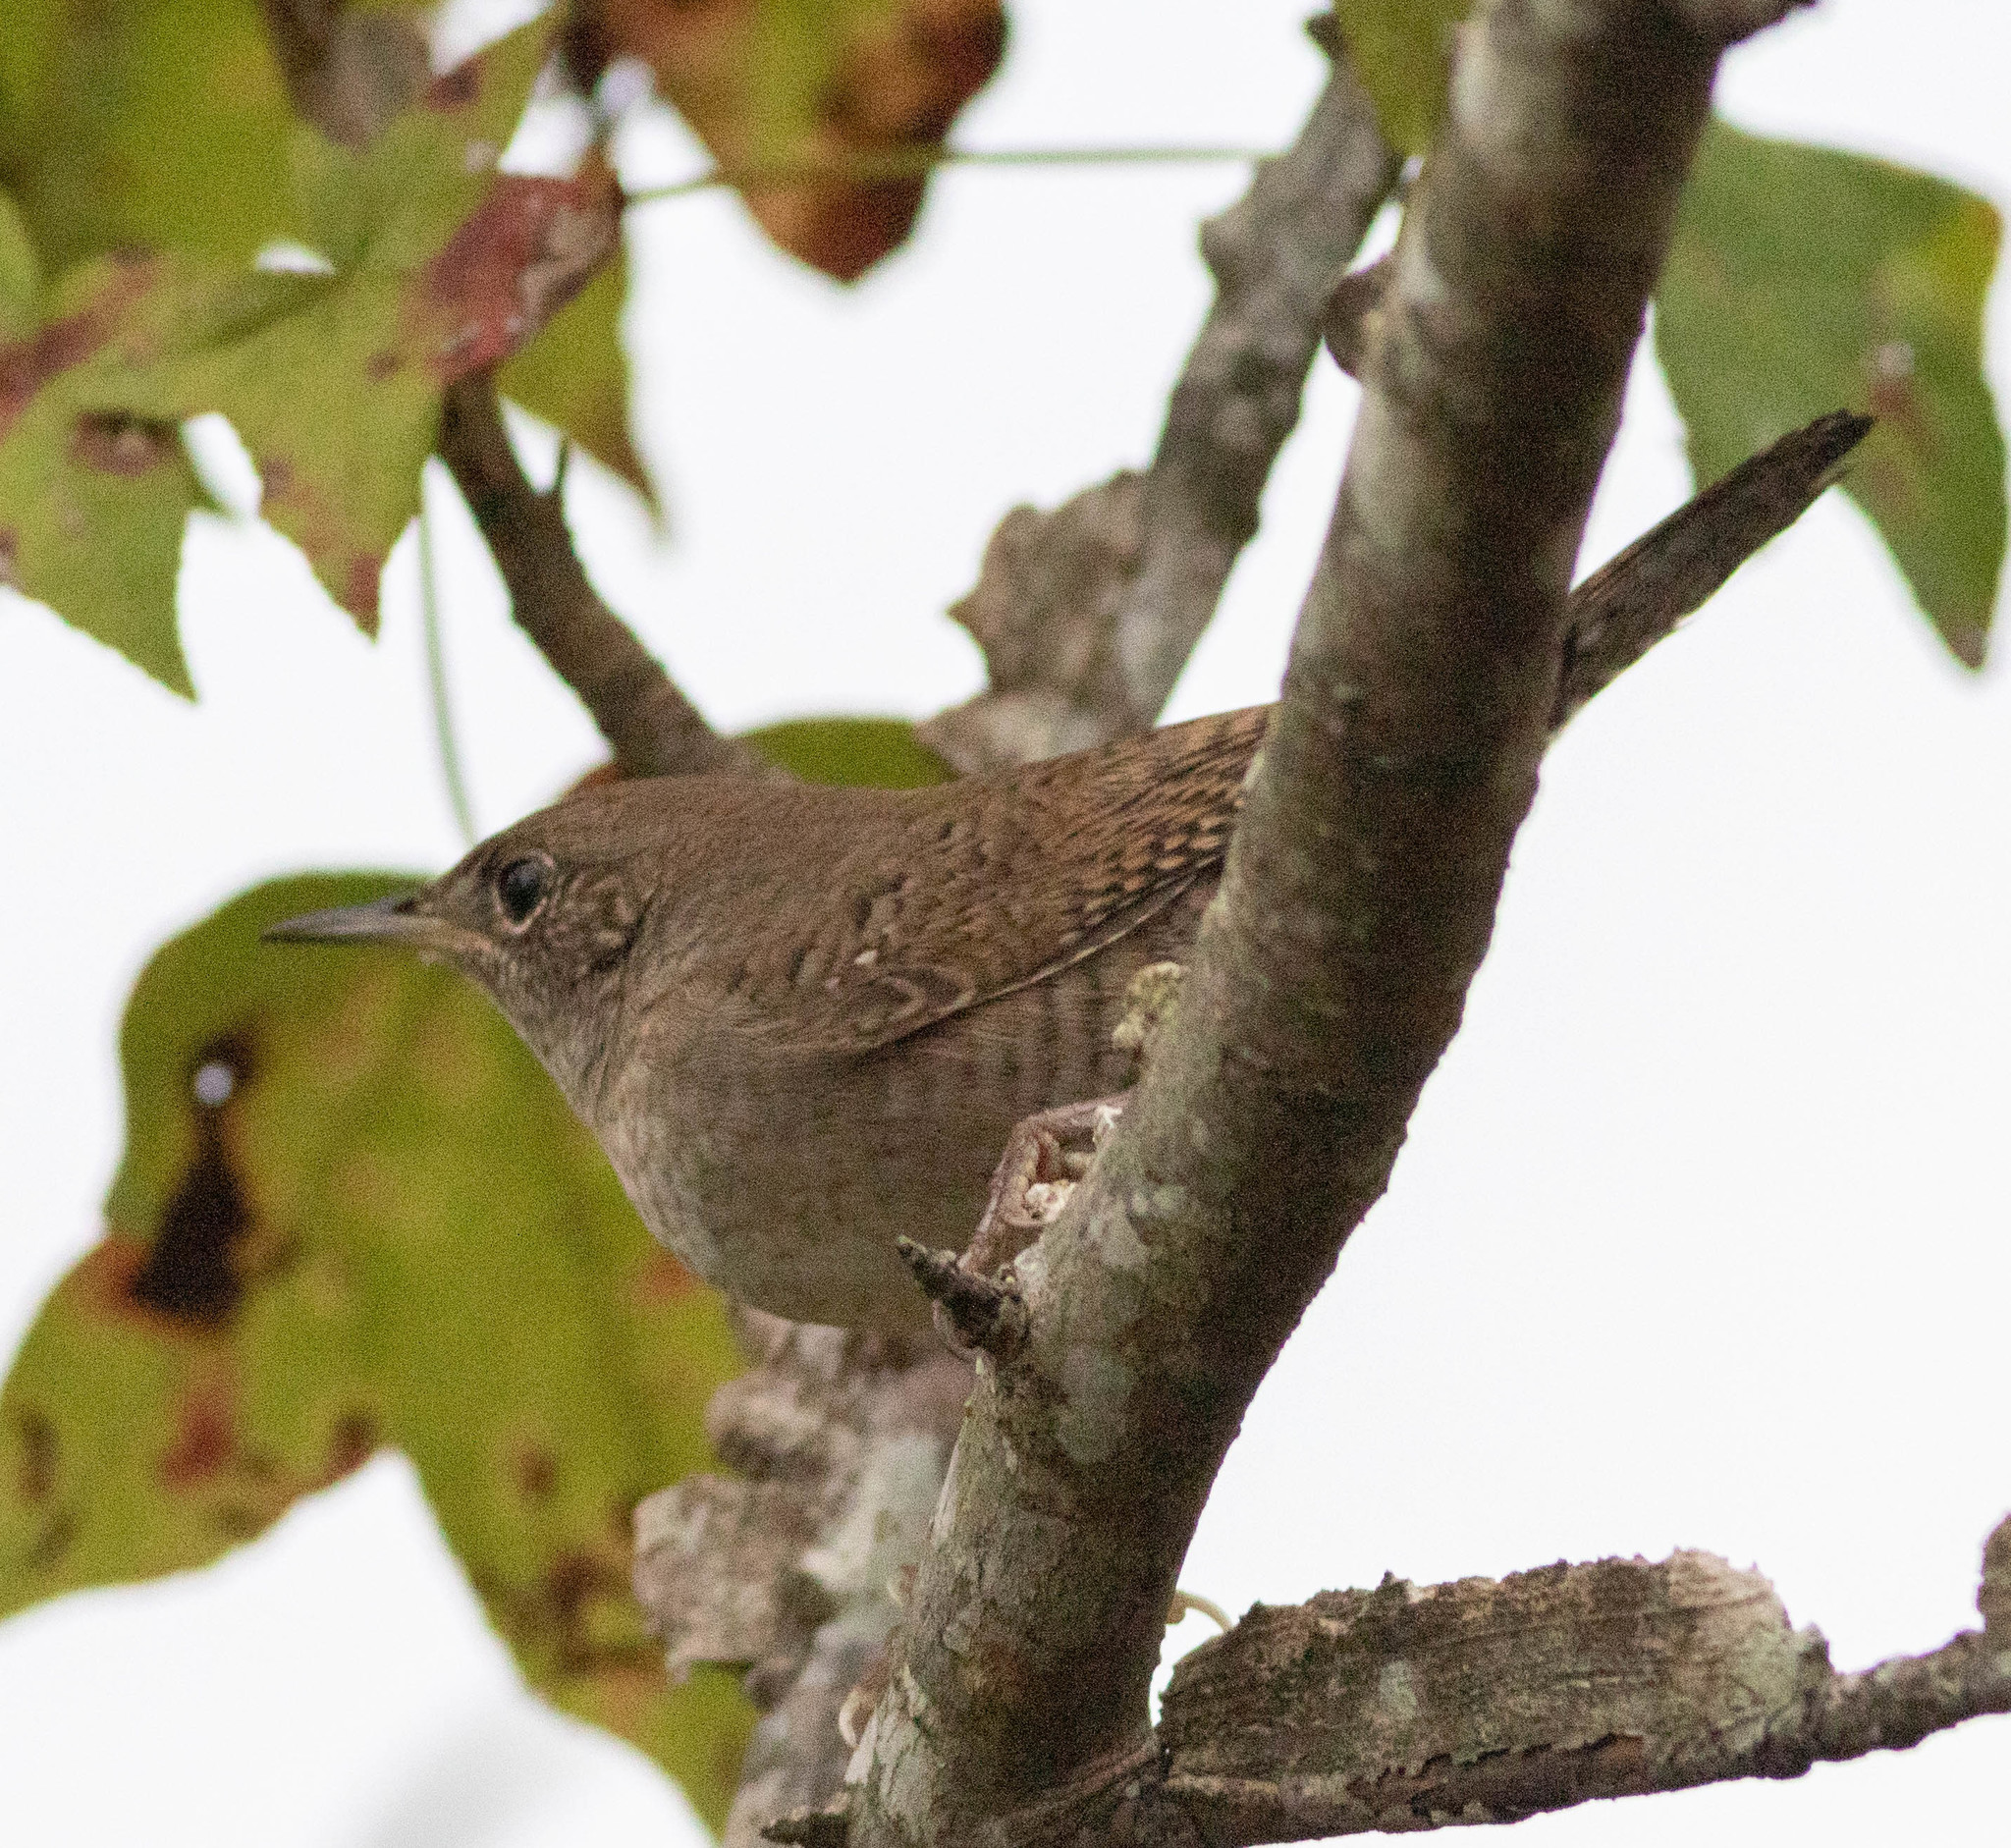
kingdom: Animalia
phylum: Chordata
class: Aves
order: Passeriformes
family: Troglodytidae
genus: Troglodytes
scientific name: Troglodytes aedon
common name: House wren
